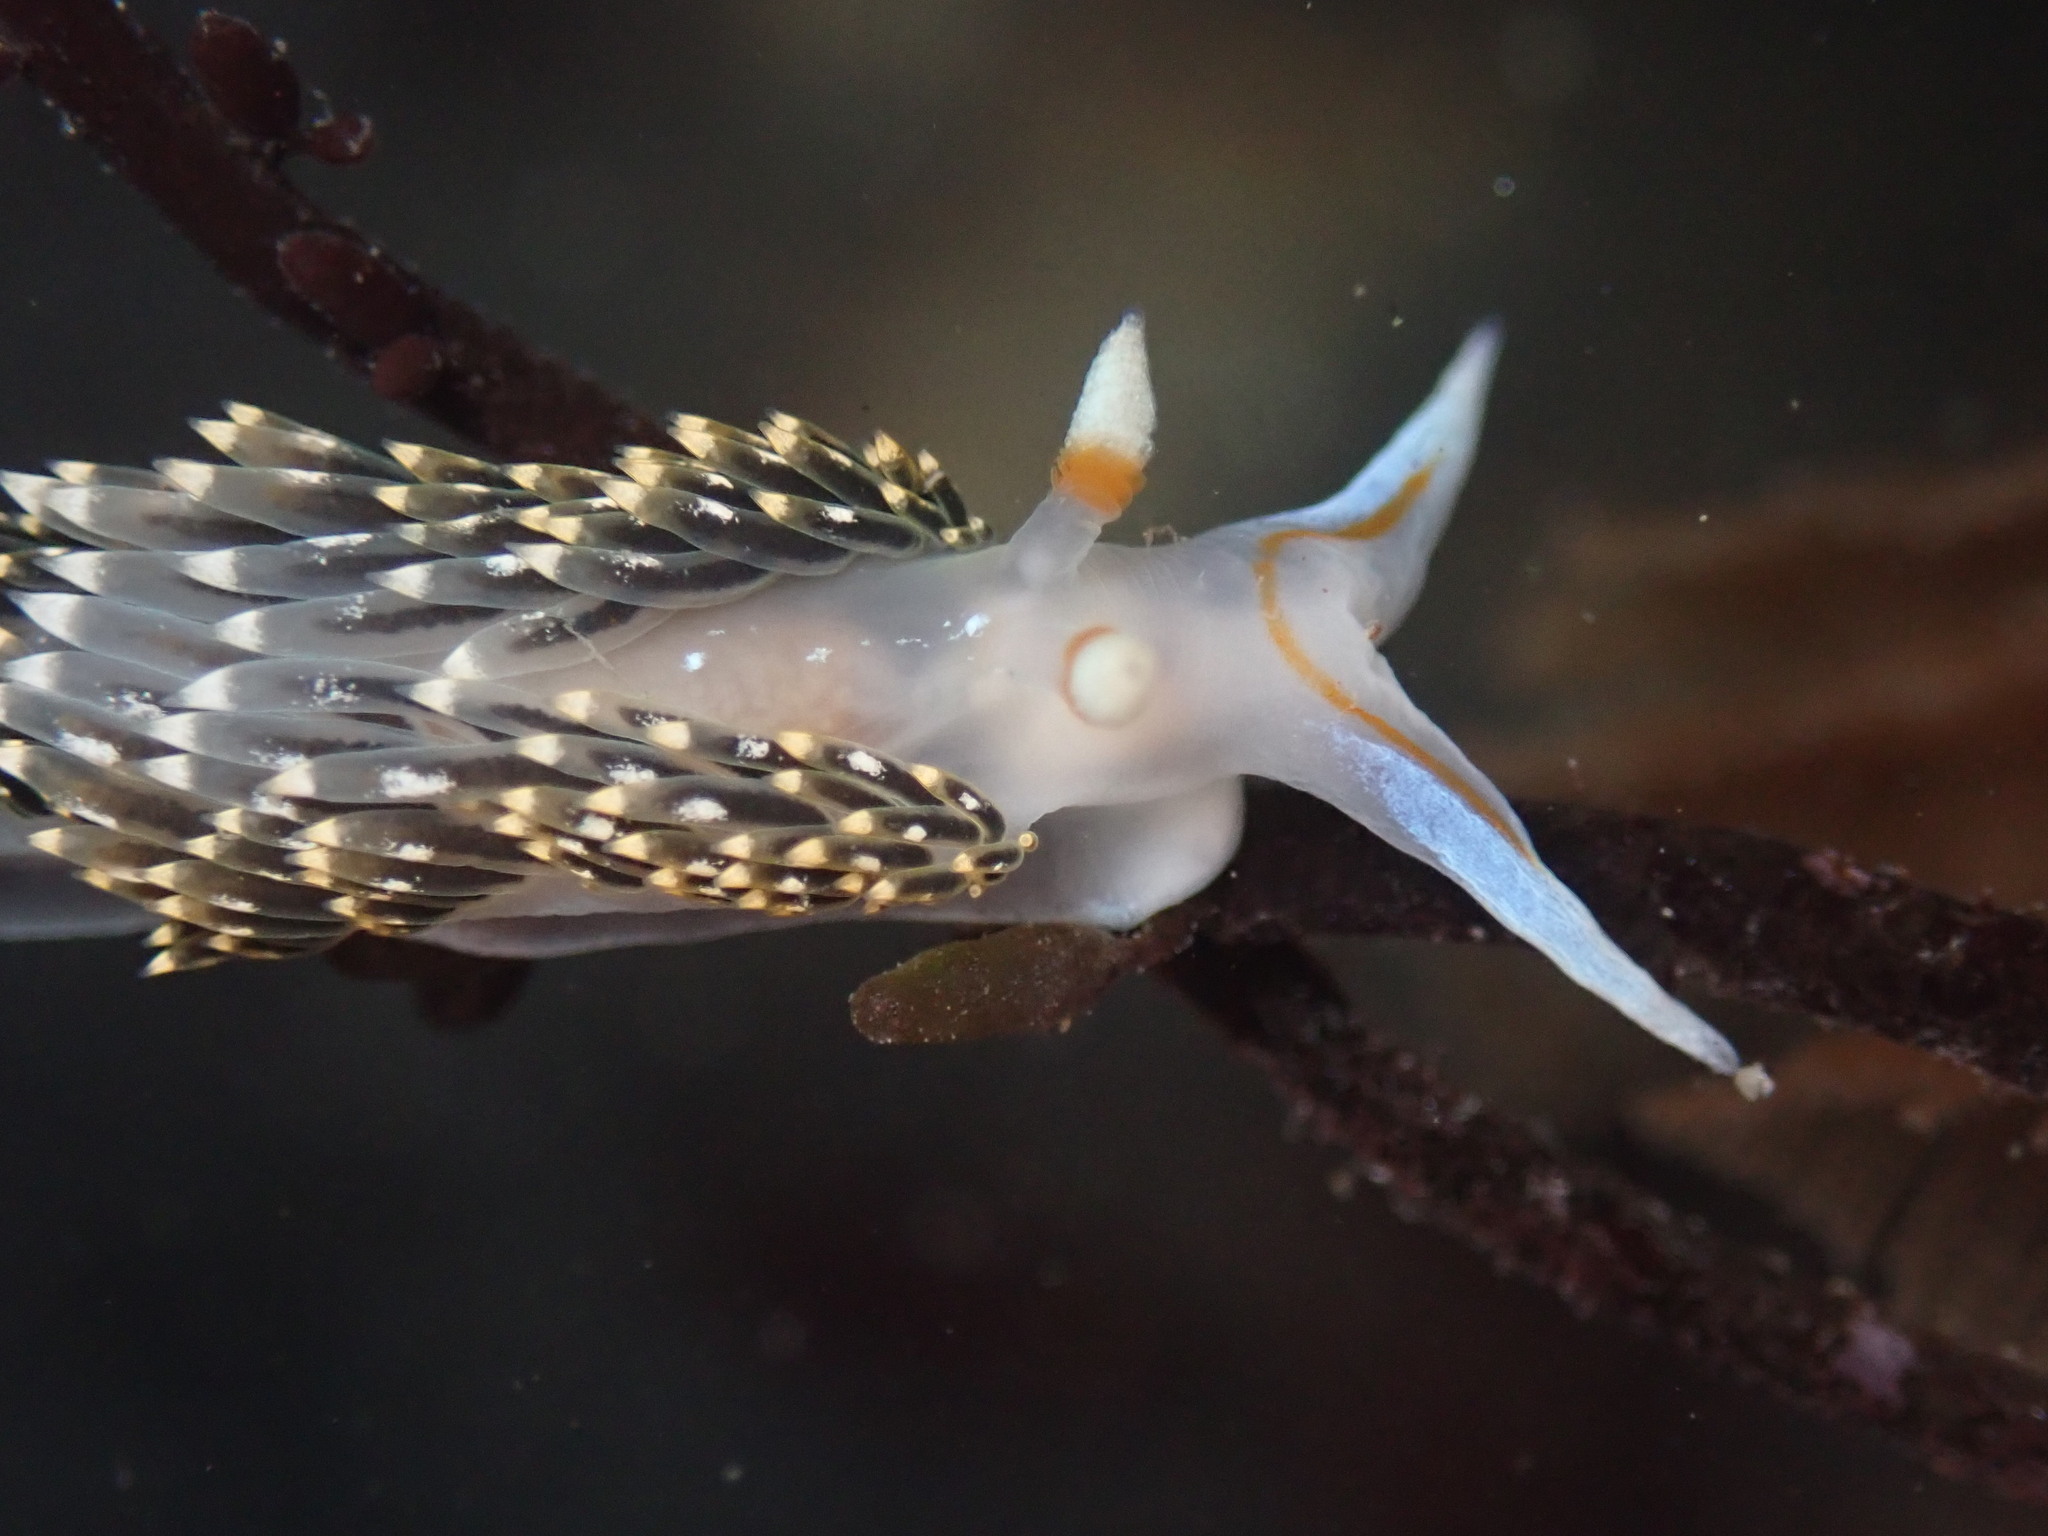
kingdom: Animalia
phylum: Mollusca
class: Gastropoda
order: Nudibranchia
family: Facelinidae
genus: Phidiana
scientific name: Phidiana hiltoni
